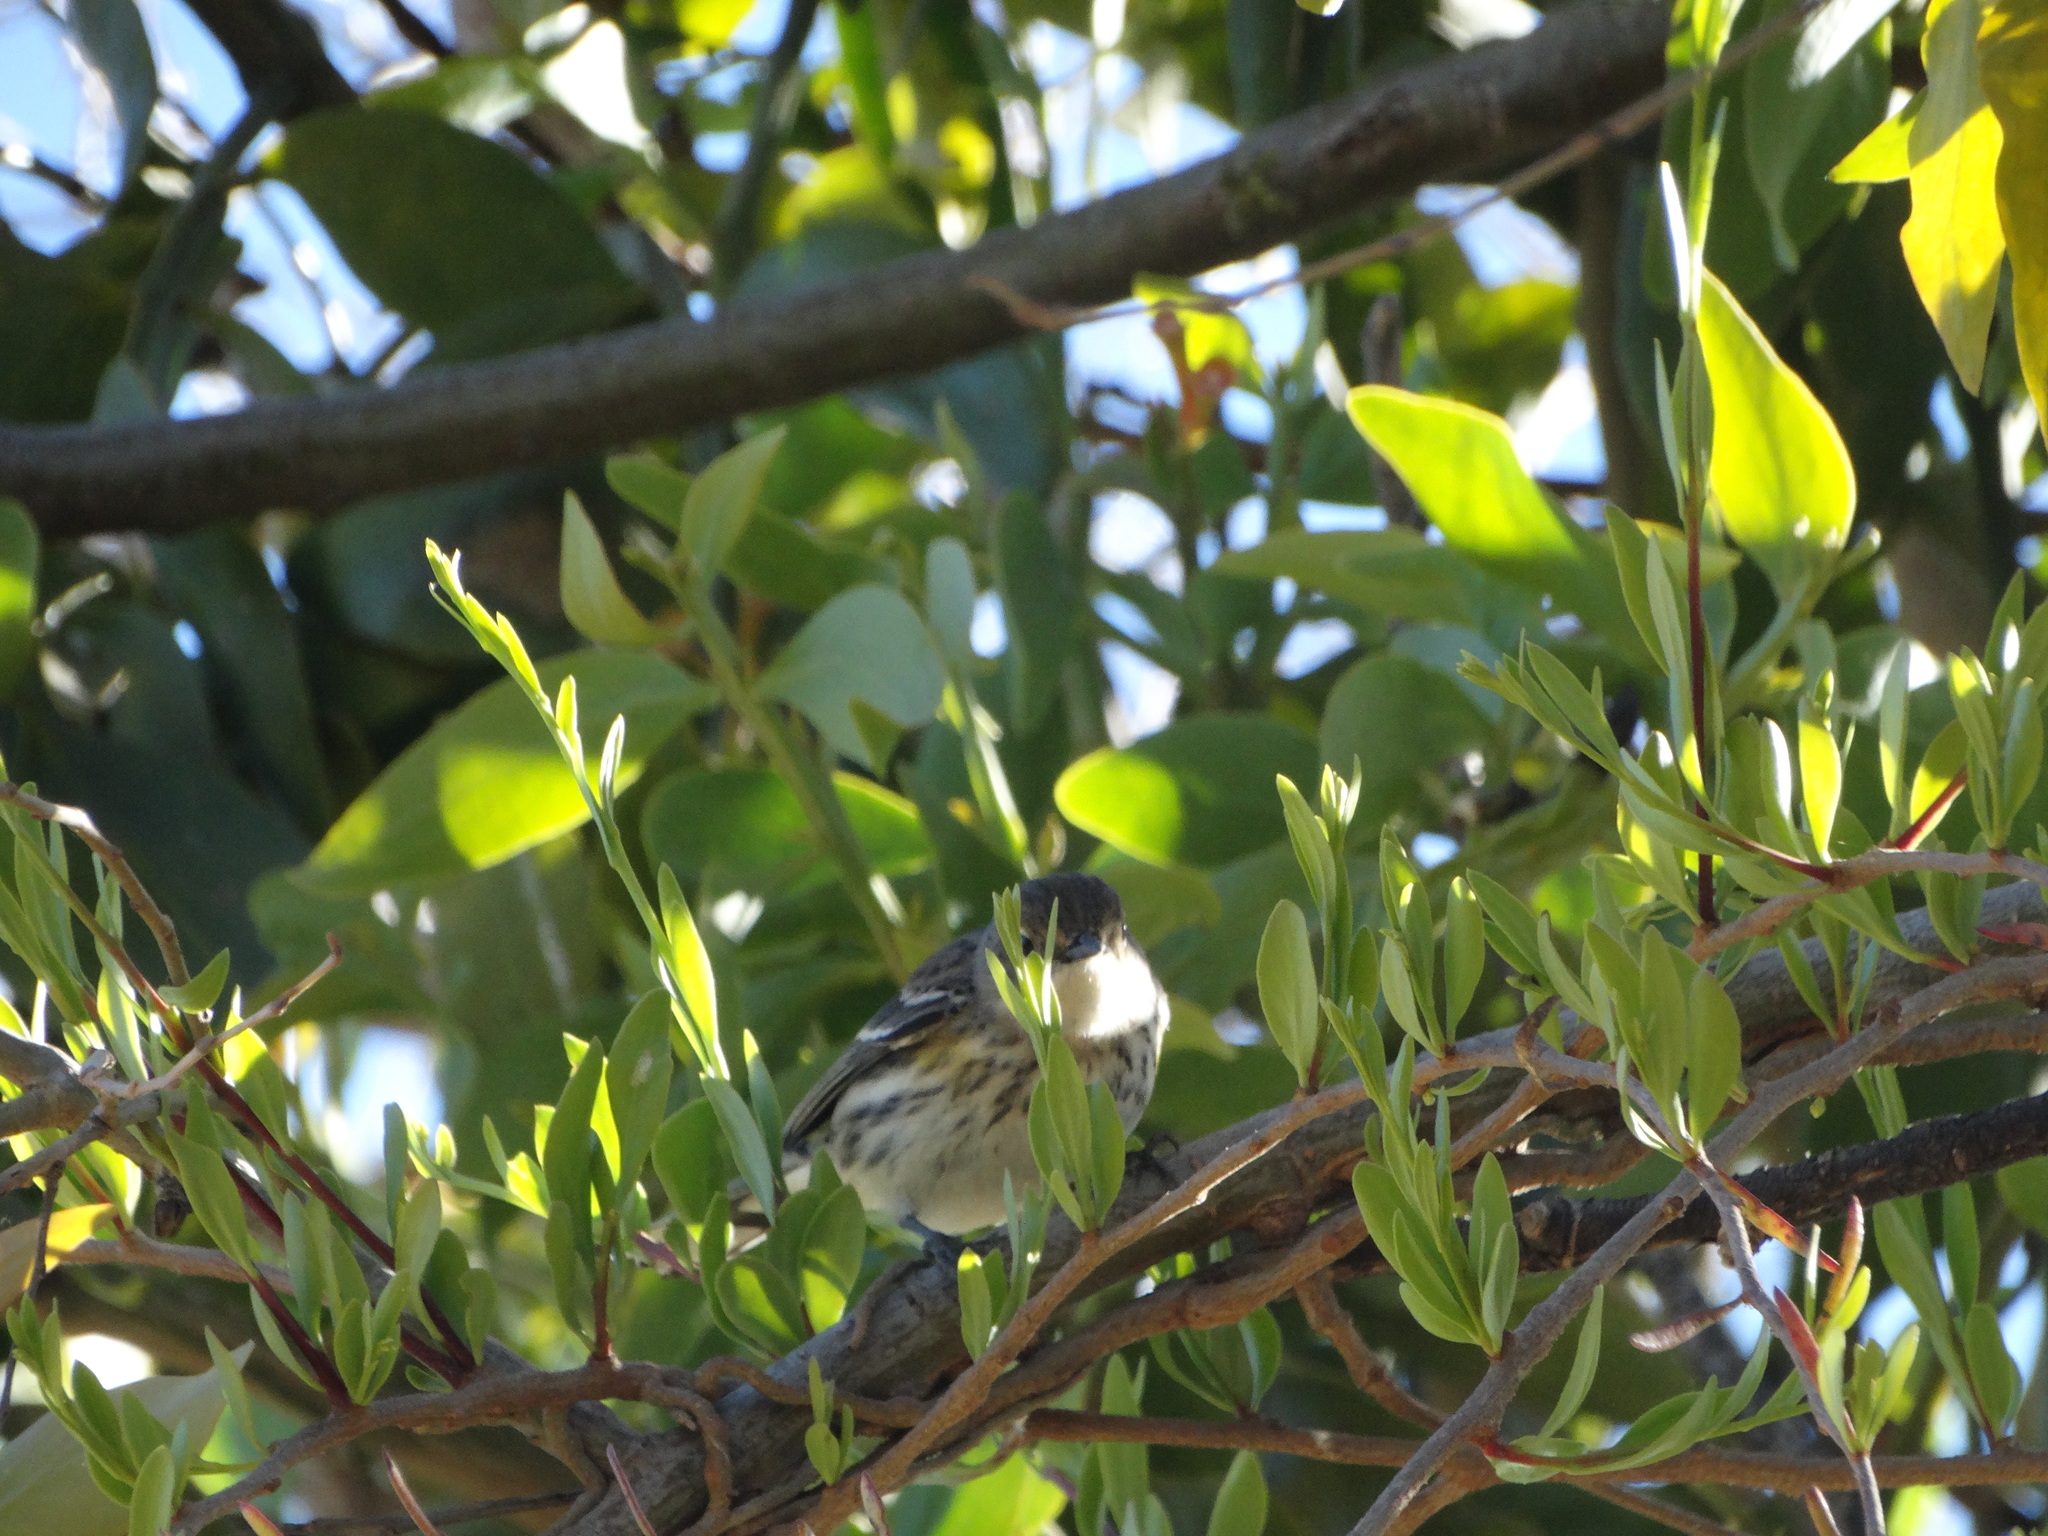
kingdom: Animalia
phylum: Chordata
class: Aves
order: Passeriformes
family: Parulidae
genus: Setophaga
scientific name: Setophaga coronata
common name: Myrtle warbler
